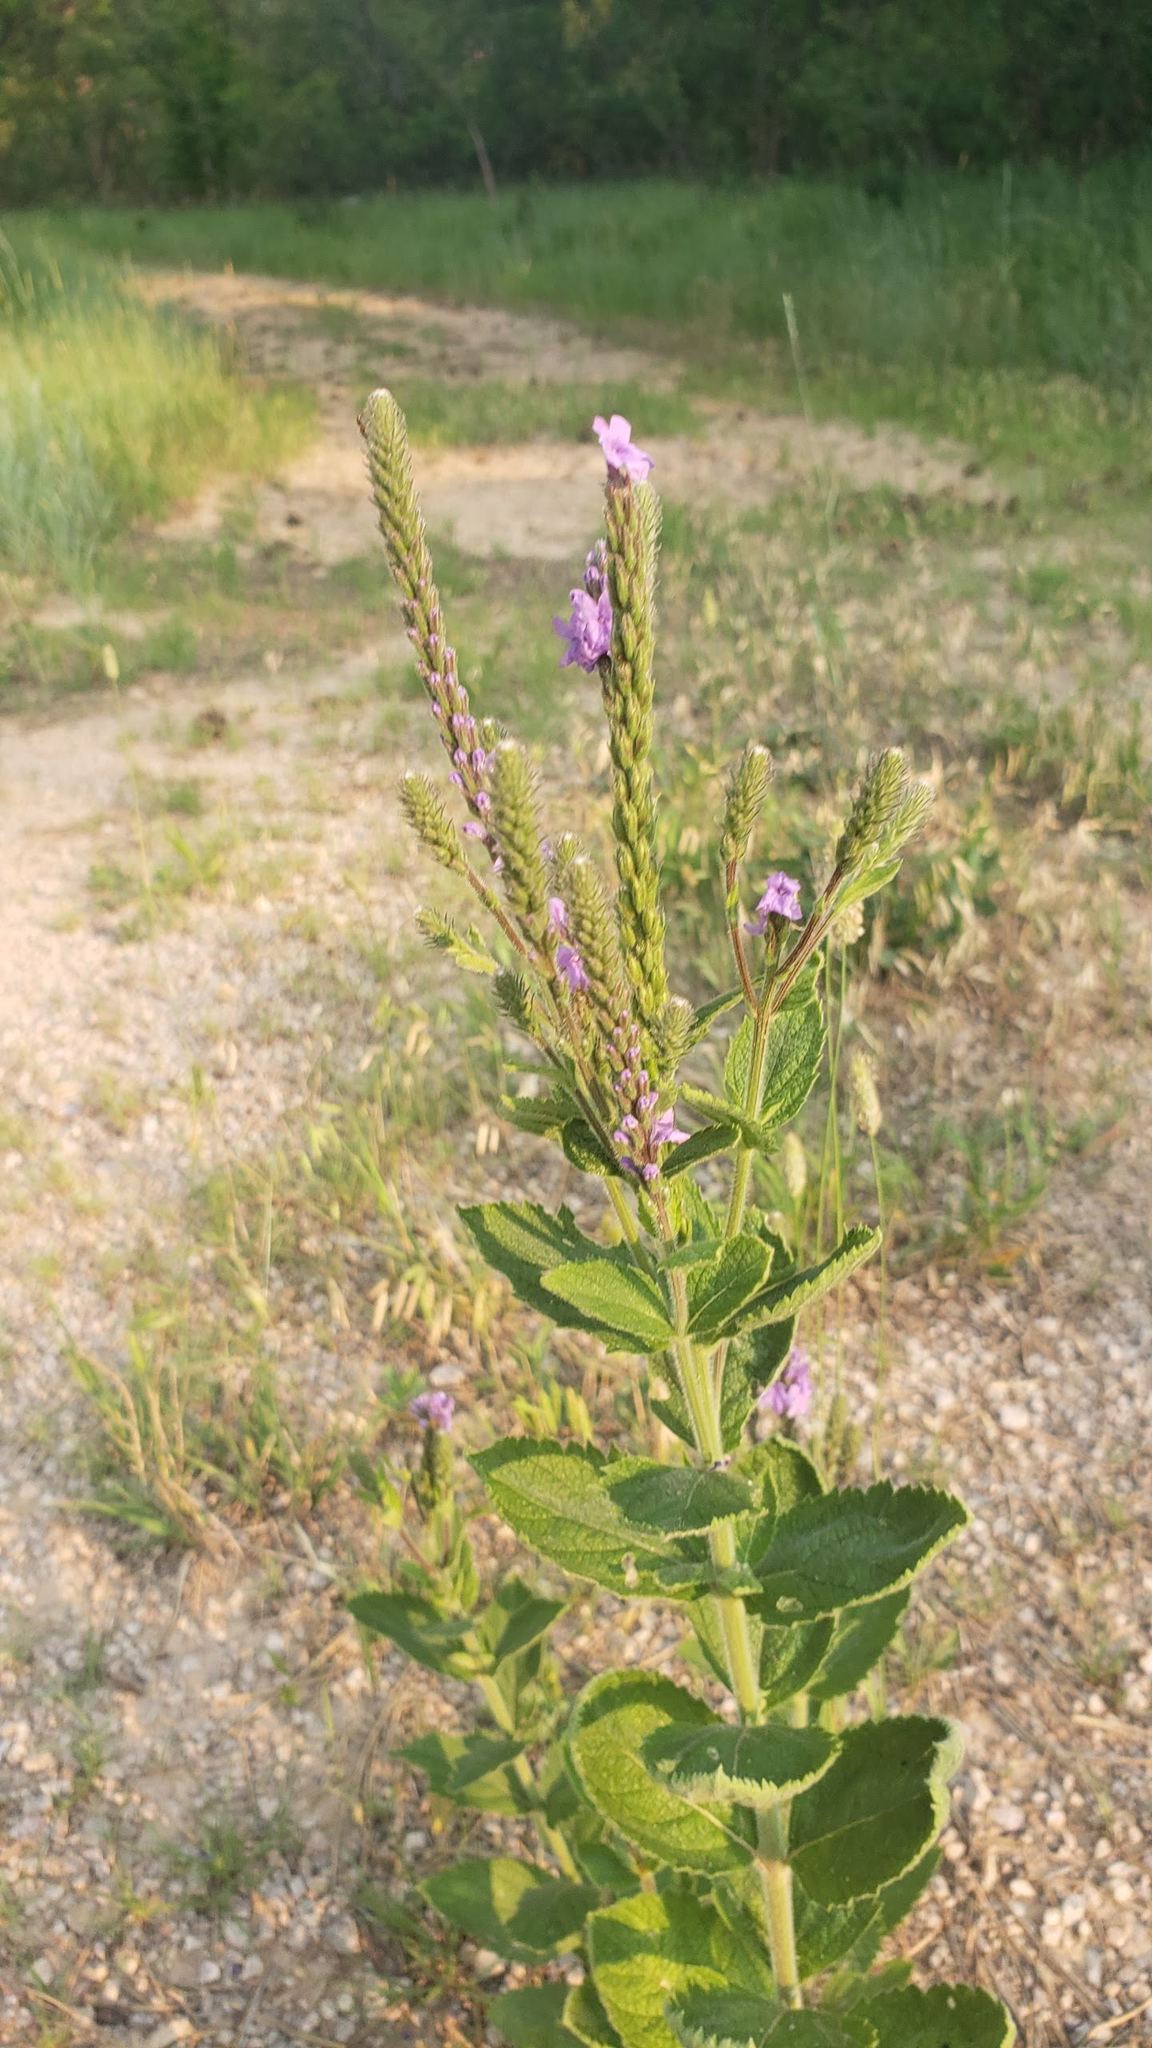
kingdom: Plantae
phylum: Tracheophyta
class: Magnoliopsida
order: Lamiales
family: Verbenaceae
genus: Verbena
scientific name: Verbena stricta
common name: Hoary vervain
